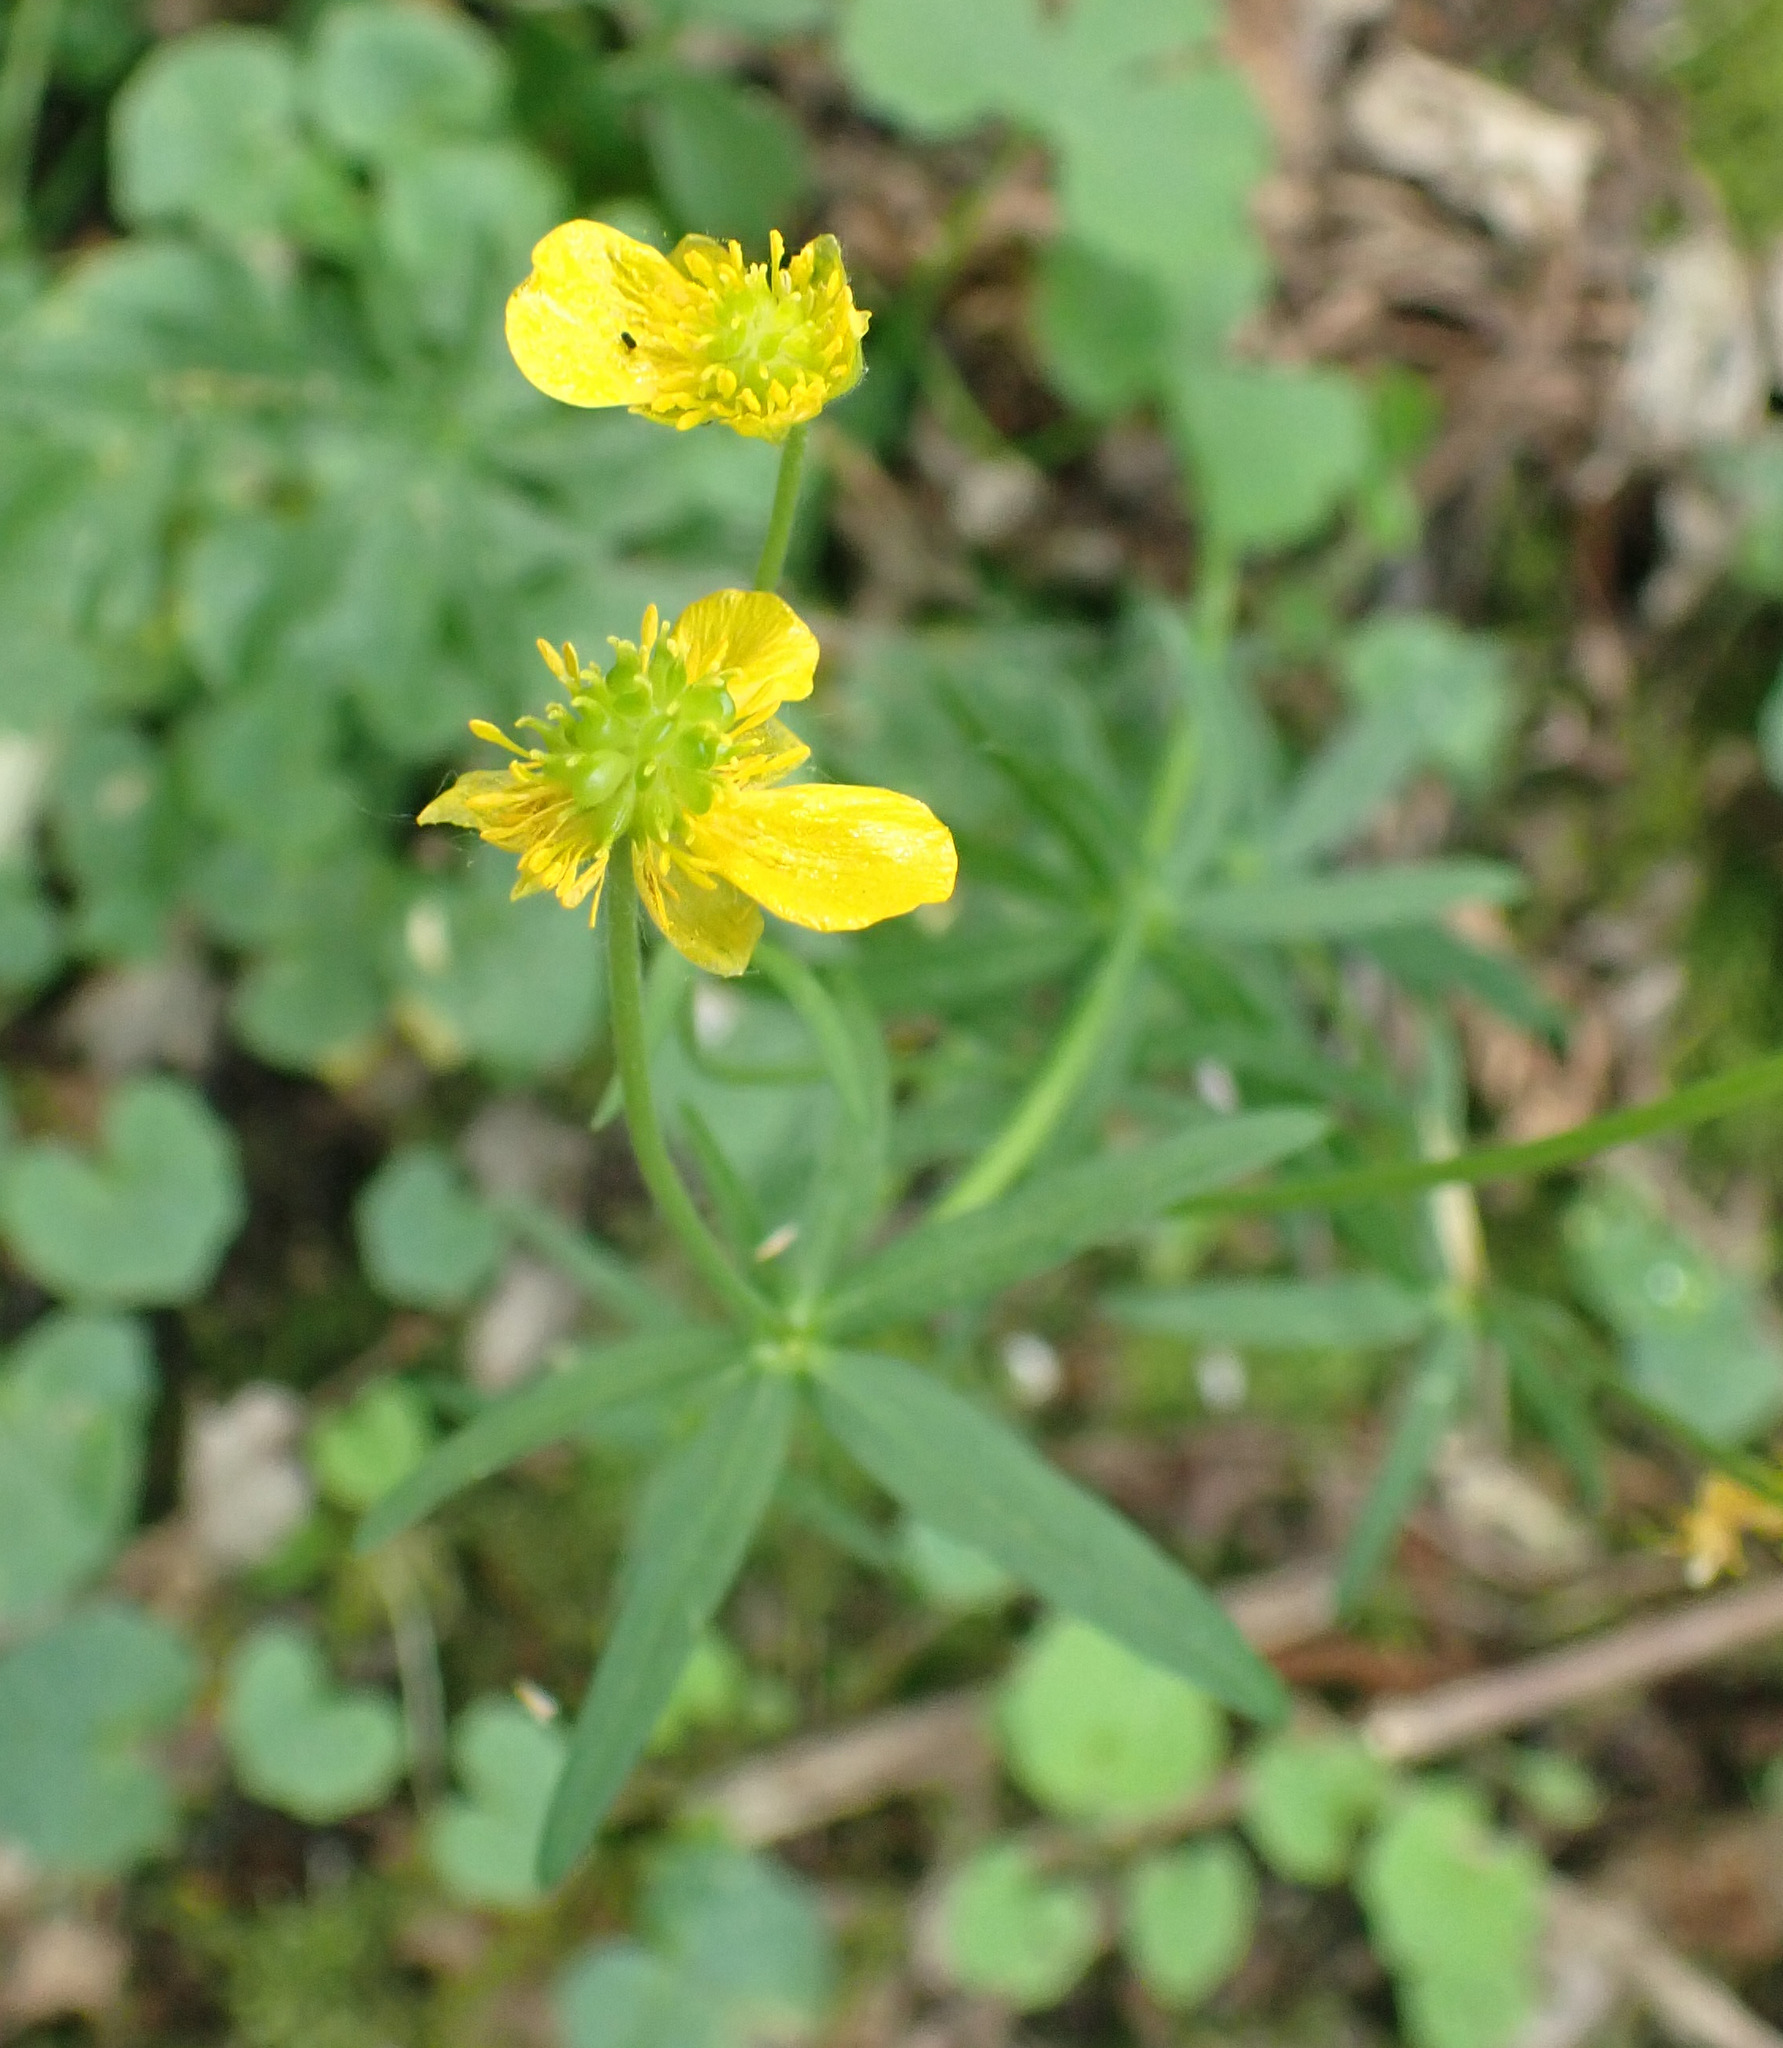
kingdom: Plantae
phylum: Tracheophyta
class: Magnoliopsida
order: Ranunculales
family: Ranunculaceae
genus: Ranunculus
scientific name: Ranunculus auricomus
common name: Goldilocks buttercup
